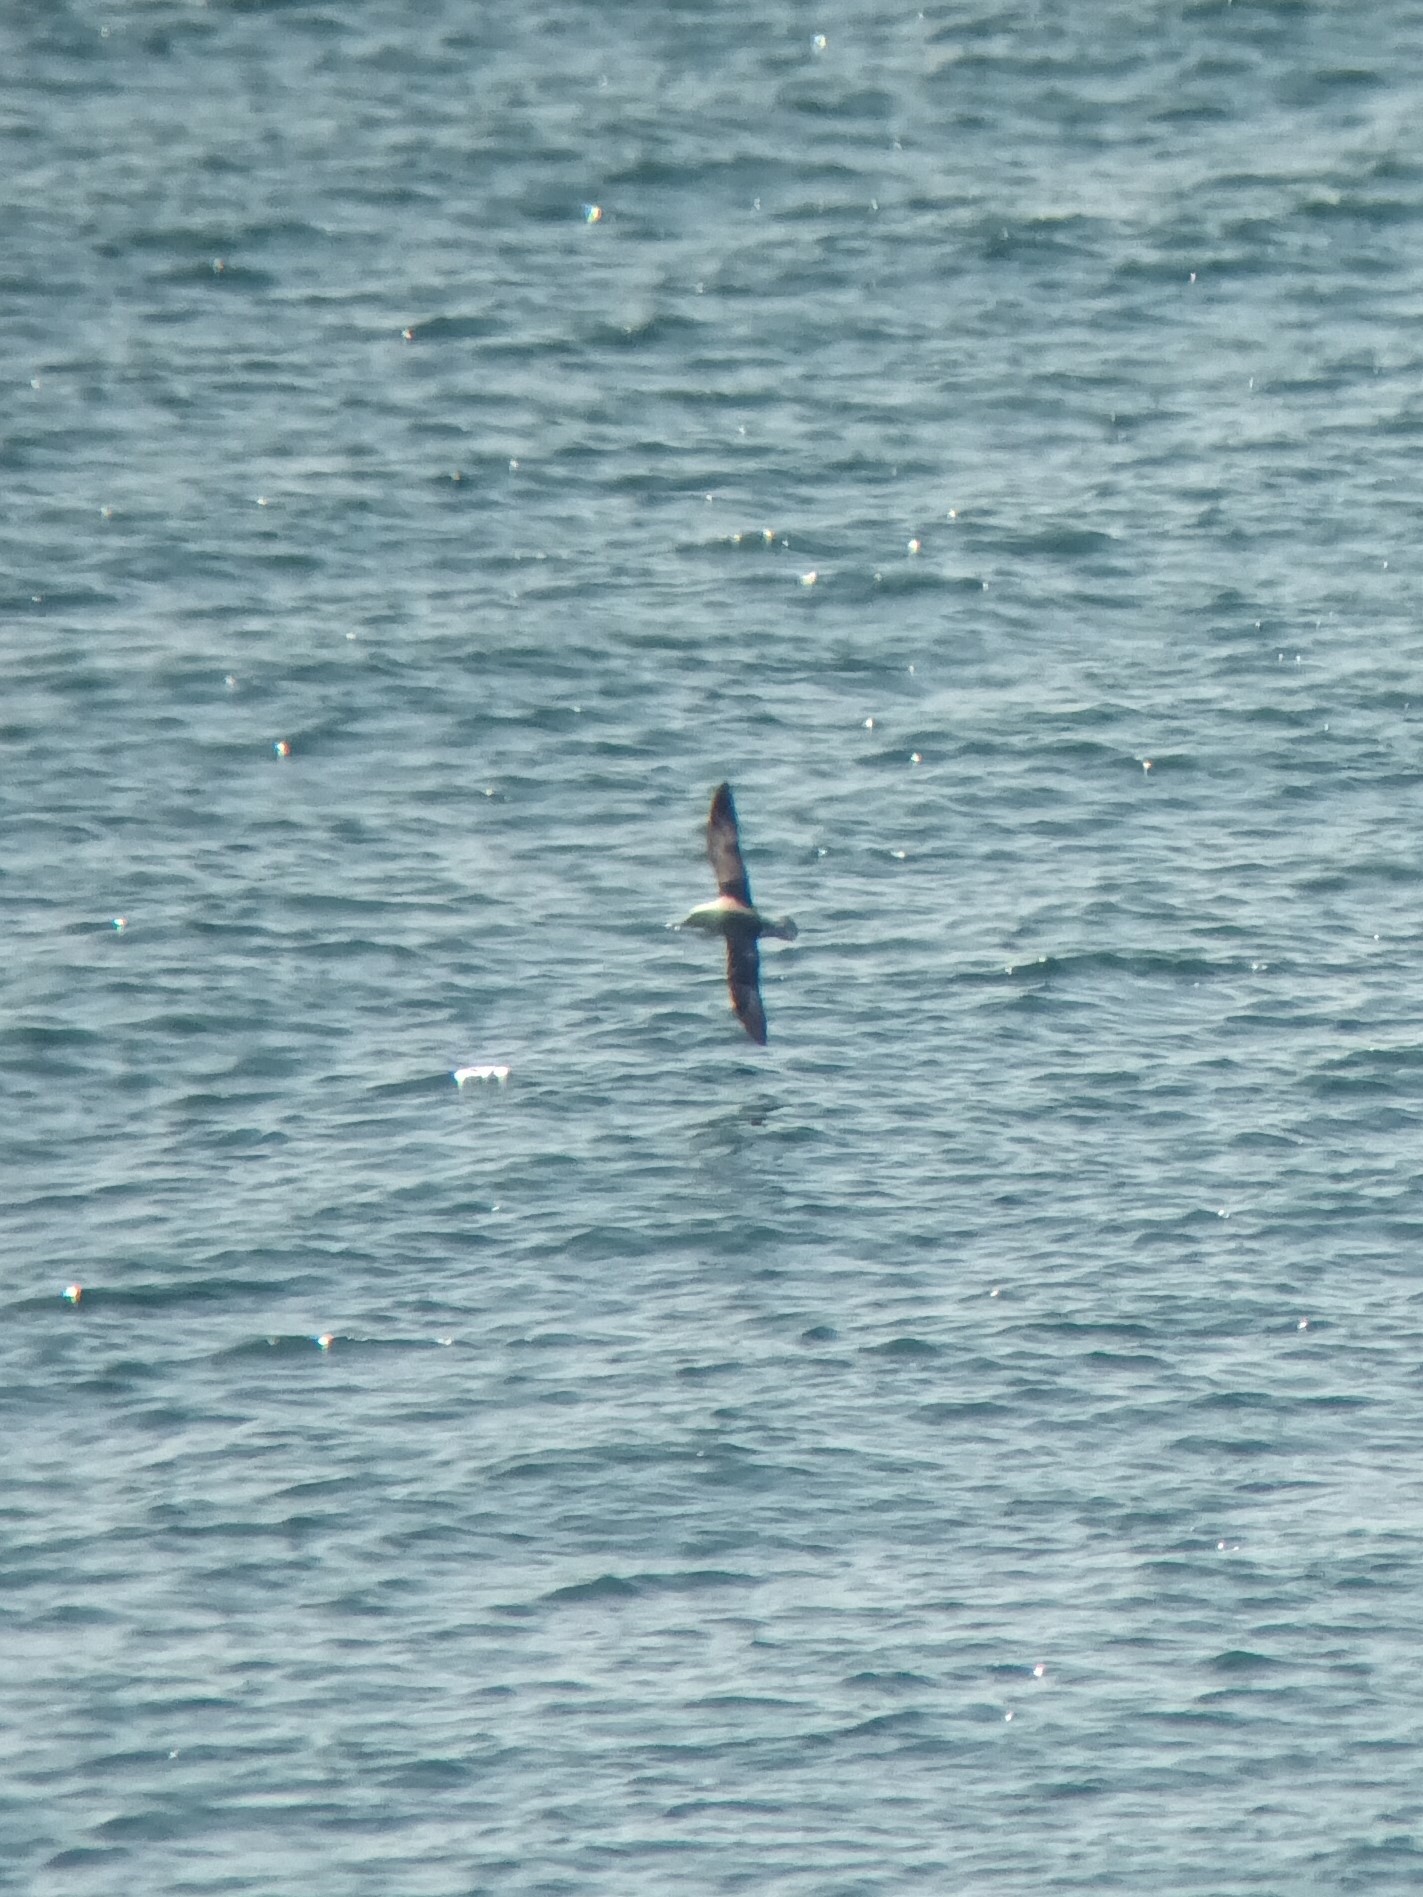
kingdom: Animalia
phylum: Chordata
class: Aves
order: Procellariiformes
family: Procellariidae
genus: Fulmarus
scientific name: Fulmarus glacialis
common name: Northern fulmar
